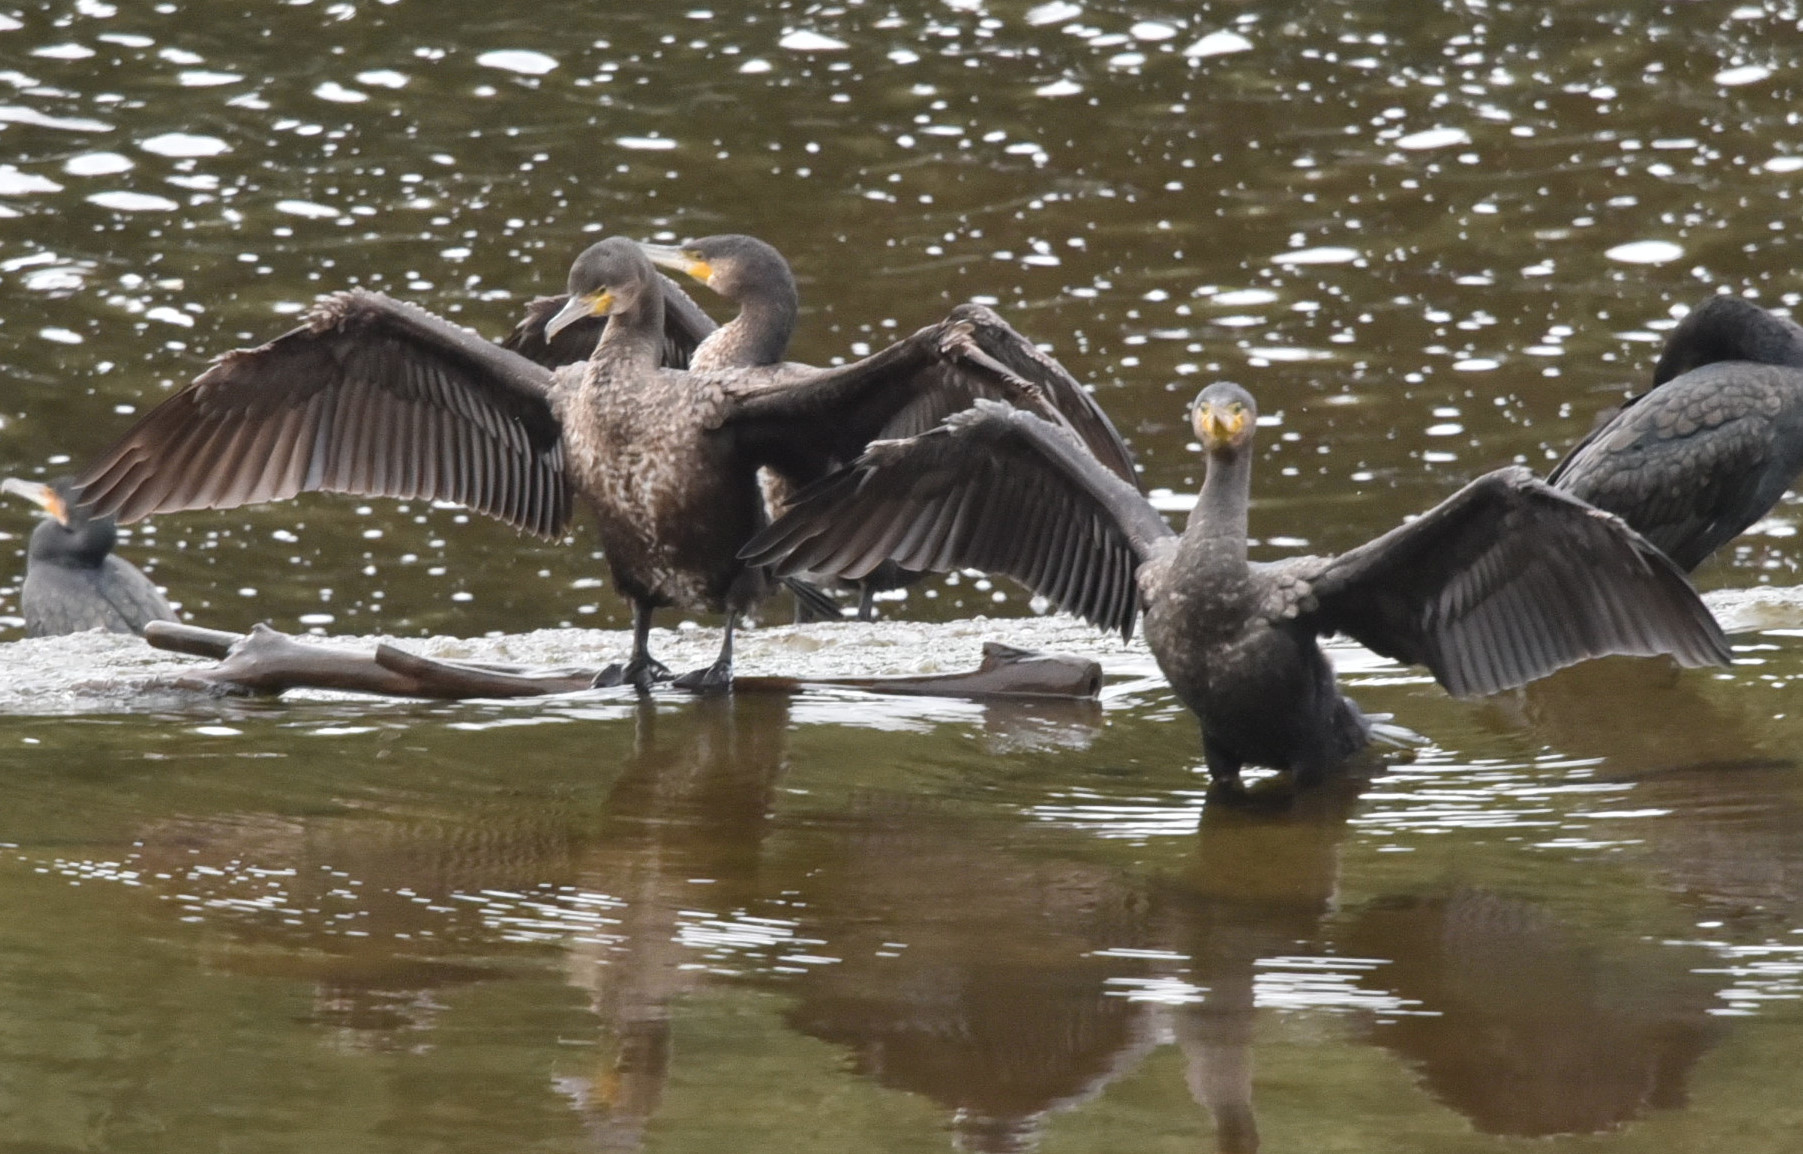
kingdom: Animalia
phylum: Chordata
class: Aves
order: Suliformes
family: Phalacrocoracidae
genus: Phalacrocorax
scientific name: Phalacrocorax carbo
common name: Great cormorant
